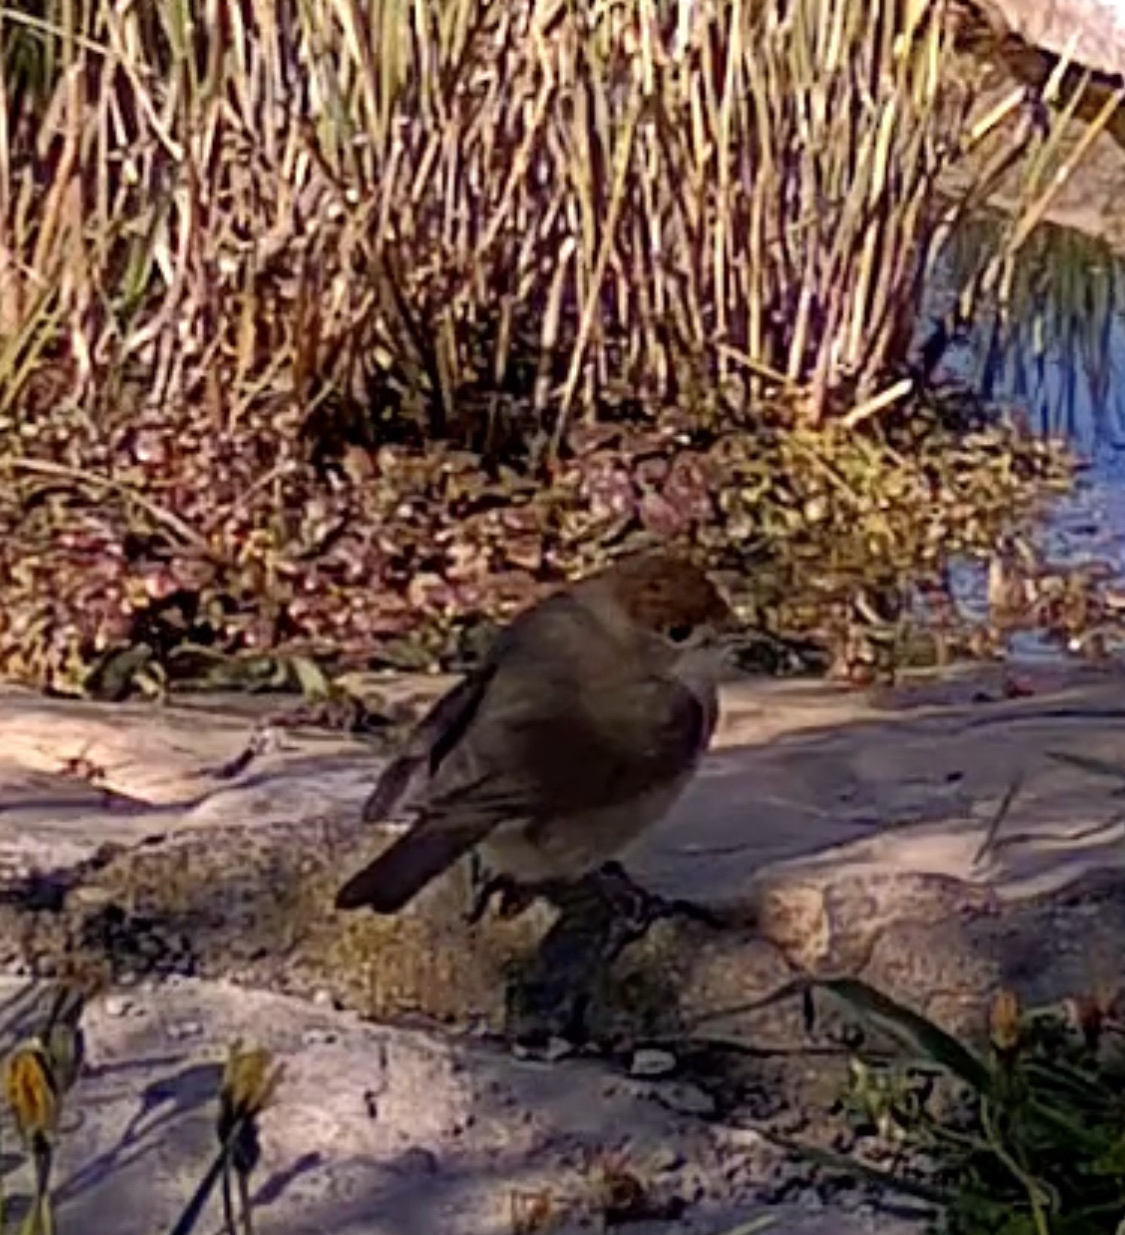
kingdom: Animalia
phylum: Chordata
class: Aves
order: Passeriformes
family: Sylviidae
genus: Sylvia
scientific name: Sylvia atricapilla
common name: Eurasian blackcap
